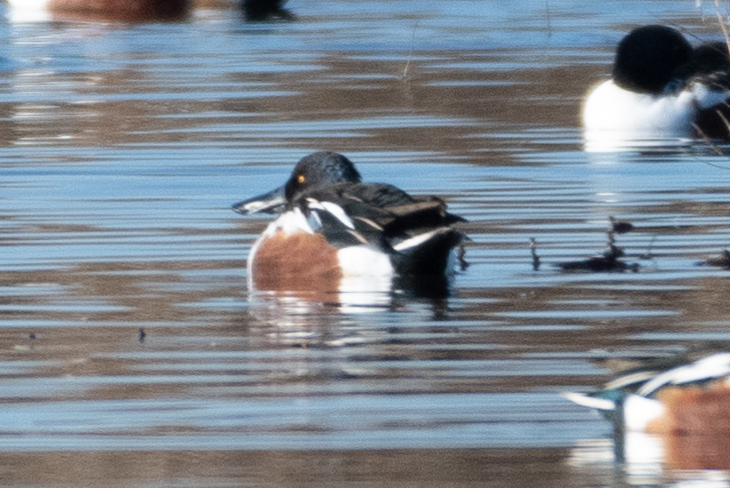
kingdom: Animalia
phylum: Chordata
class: Aves
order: Anseriformes
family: Anatidae
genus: Spatula
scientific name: Spatula clypeata
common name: Northern shoveler
